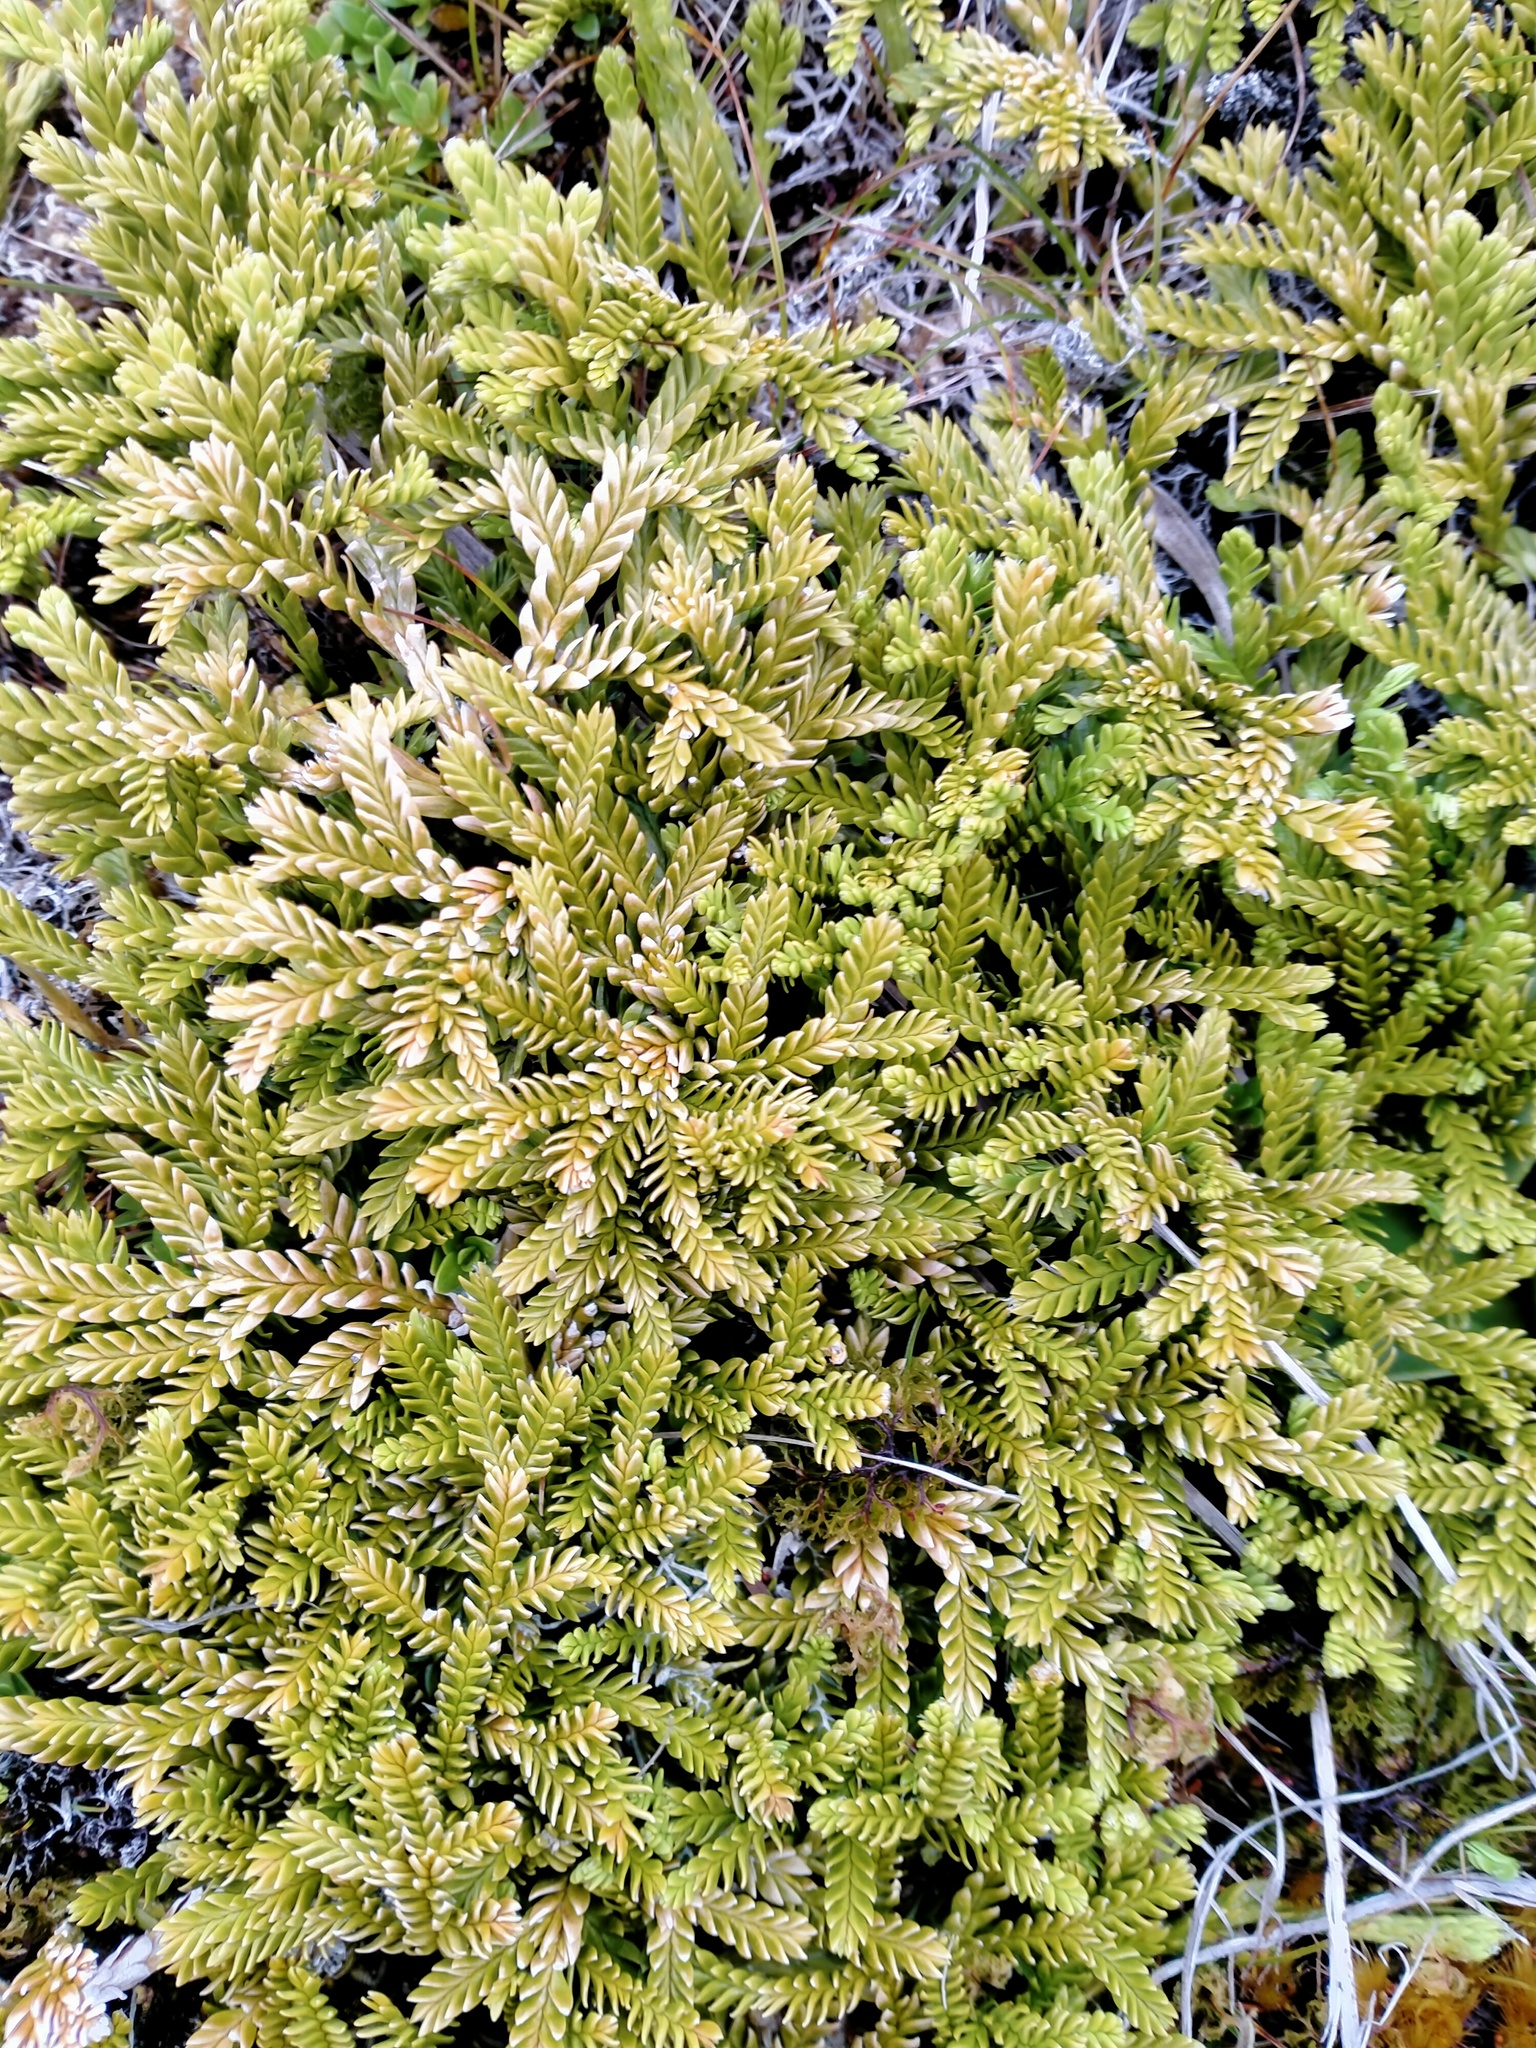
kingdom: Plantae
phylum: Tracheophyta
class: Lycopodiopsida
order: Lycopodiales
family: Lycopodiaceae
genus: Diphasium
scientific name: Diphasium scariosum
